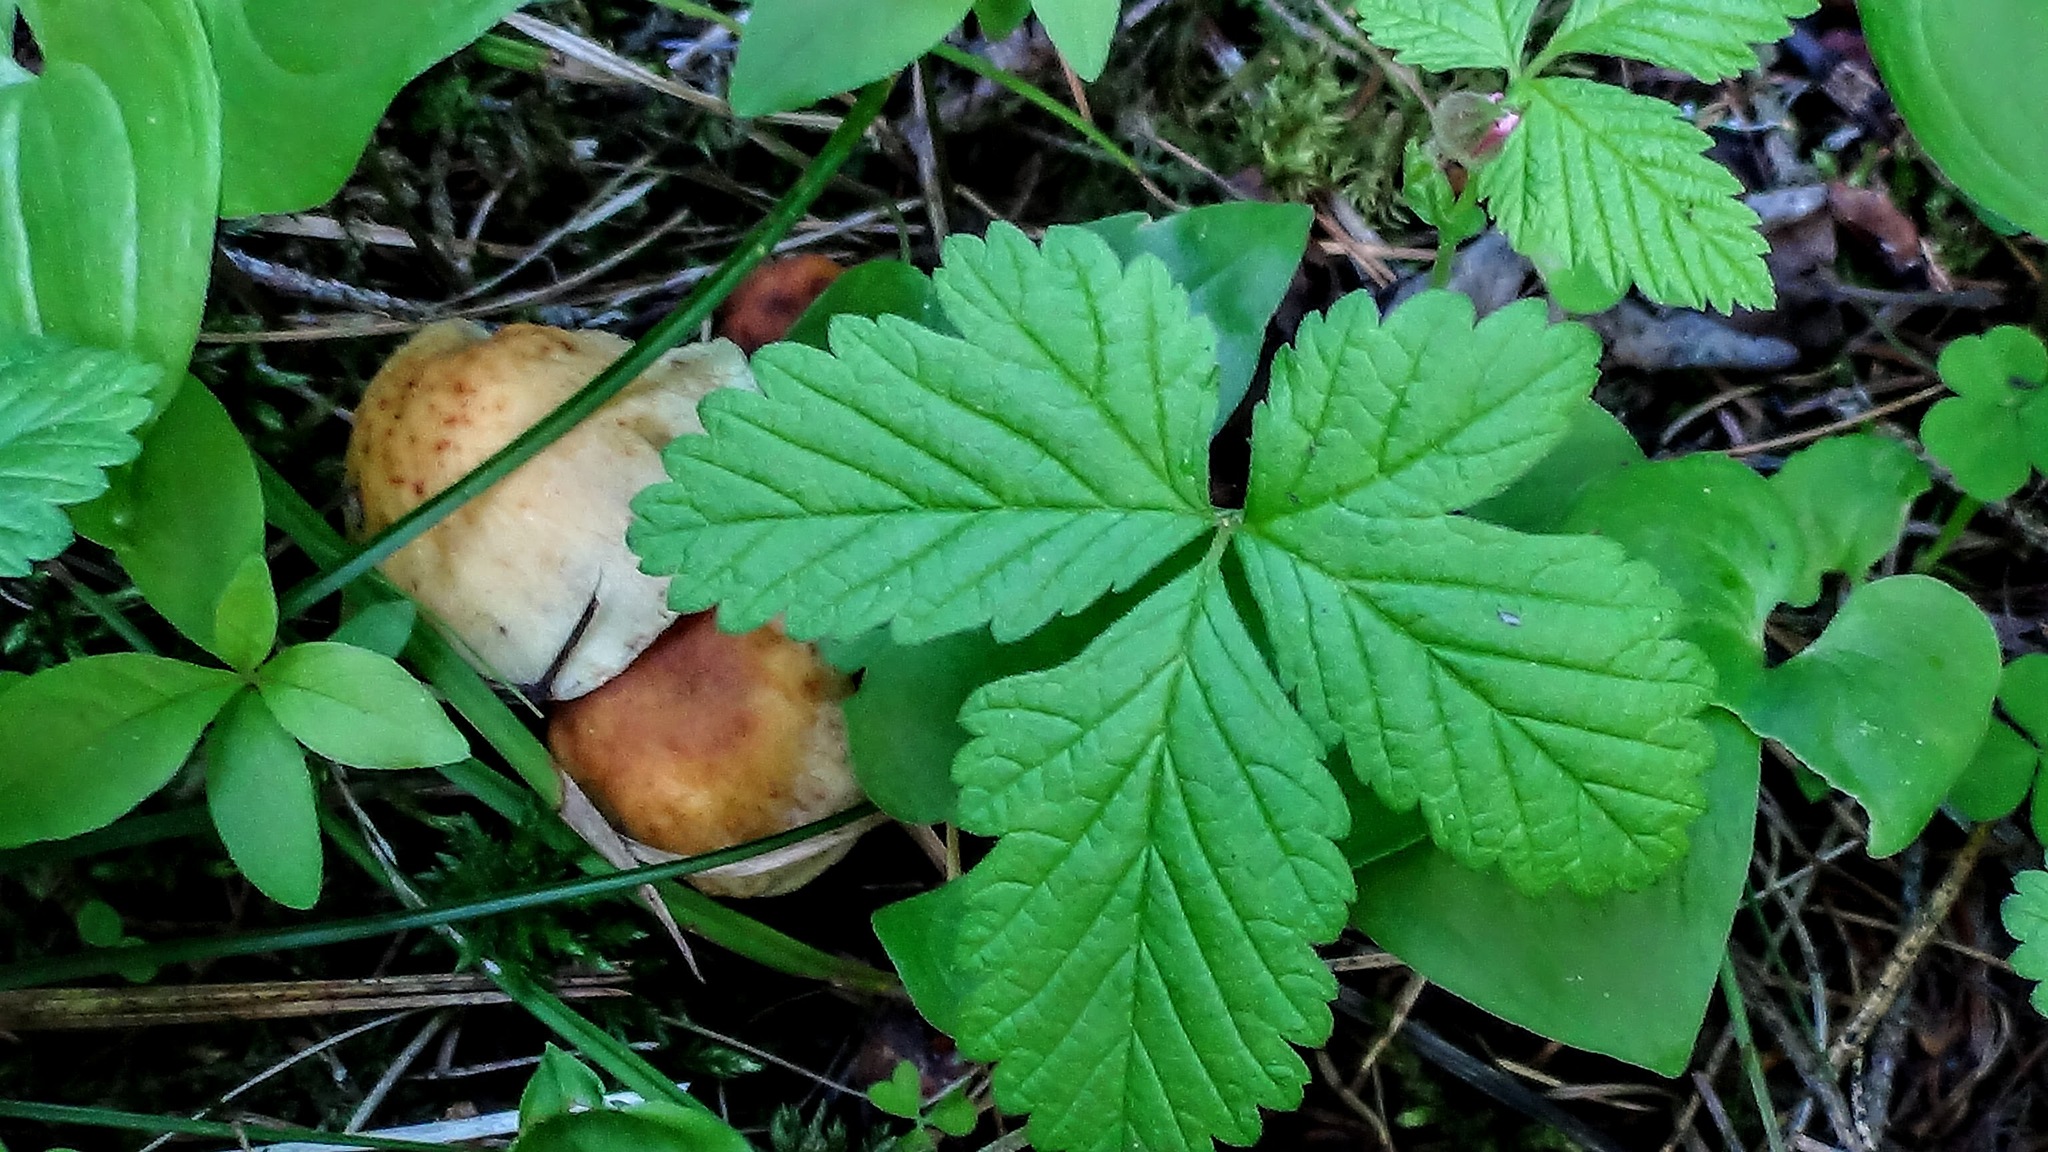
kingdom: Fungi
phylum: Basidiomycota
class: Agaricomycetes
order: Agaricales
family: Strophariaceae
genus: Hypholoma
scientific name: Hypholoma fasciculare
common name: Sulphur tuft
